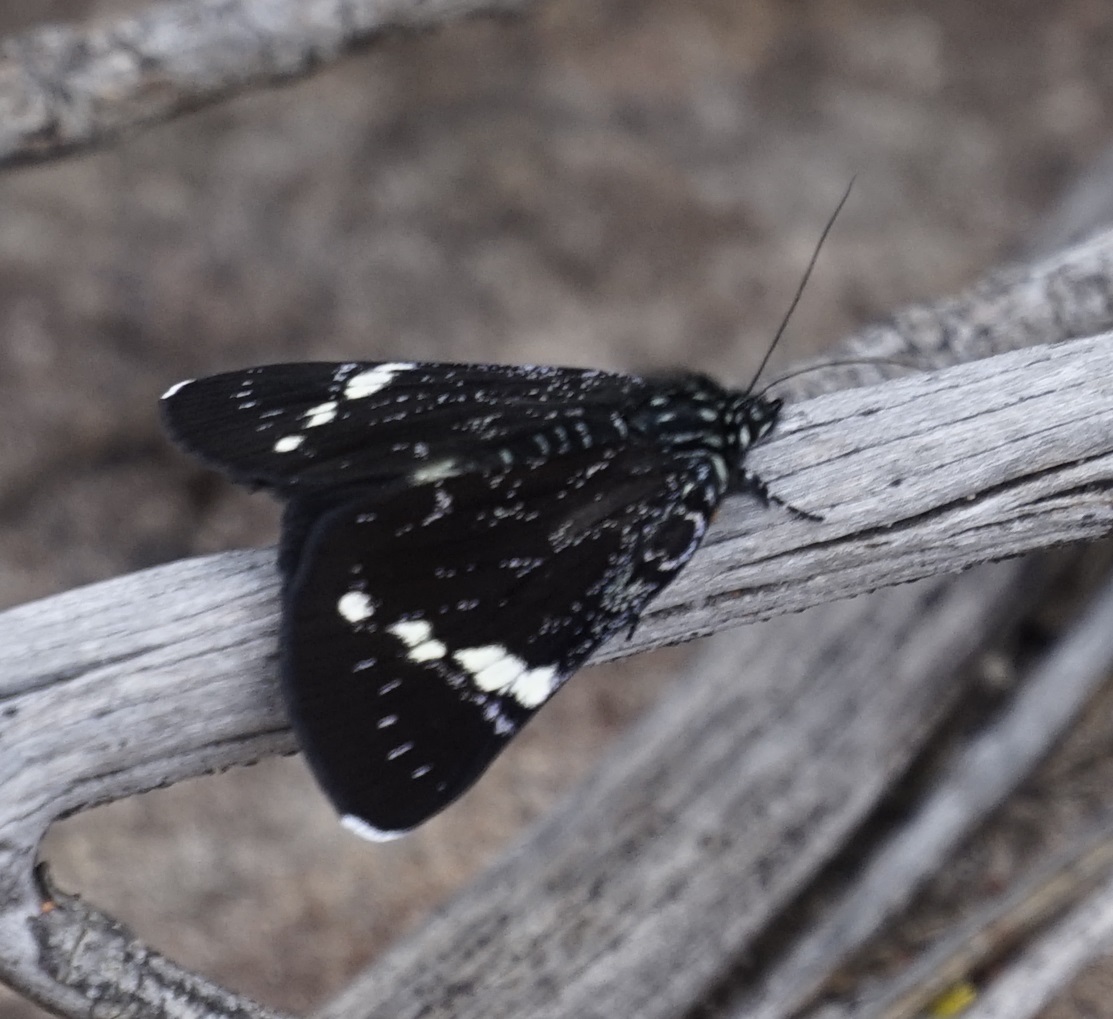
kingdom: Animalia
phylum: Arthropoda
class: Insecta
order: Lepidoptera
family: Noctuidae
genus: Platagarista
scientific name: Platagarista macleayi
